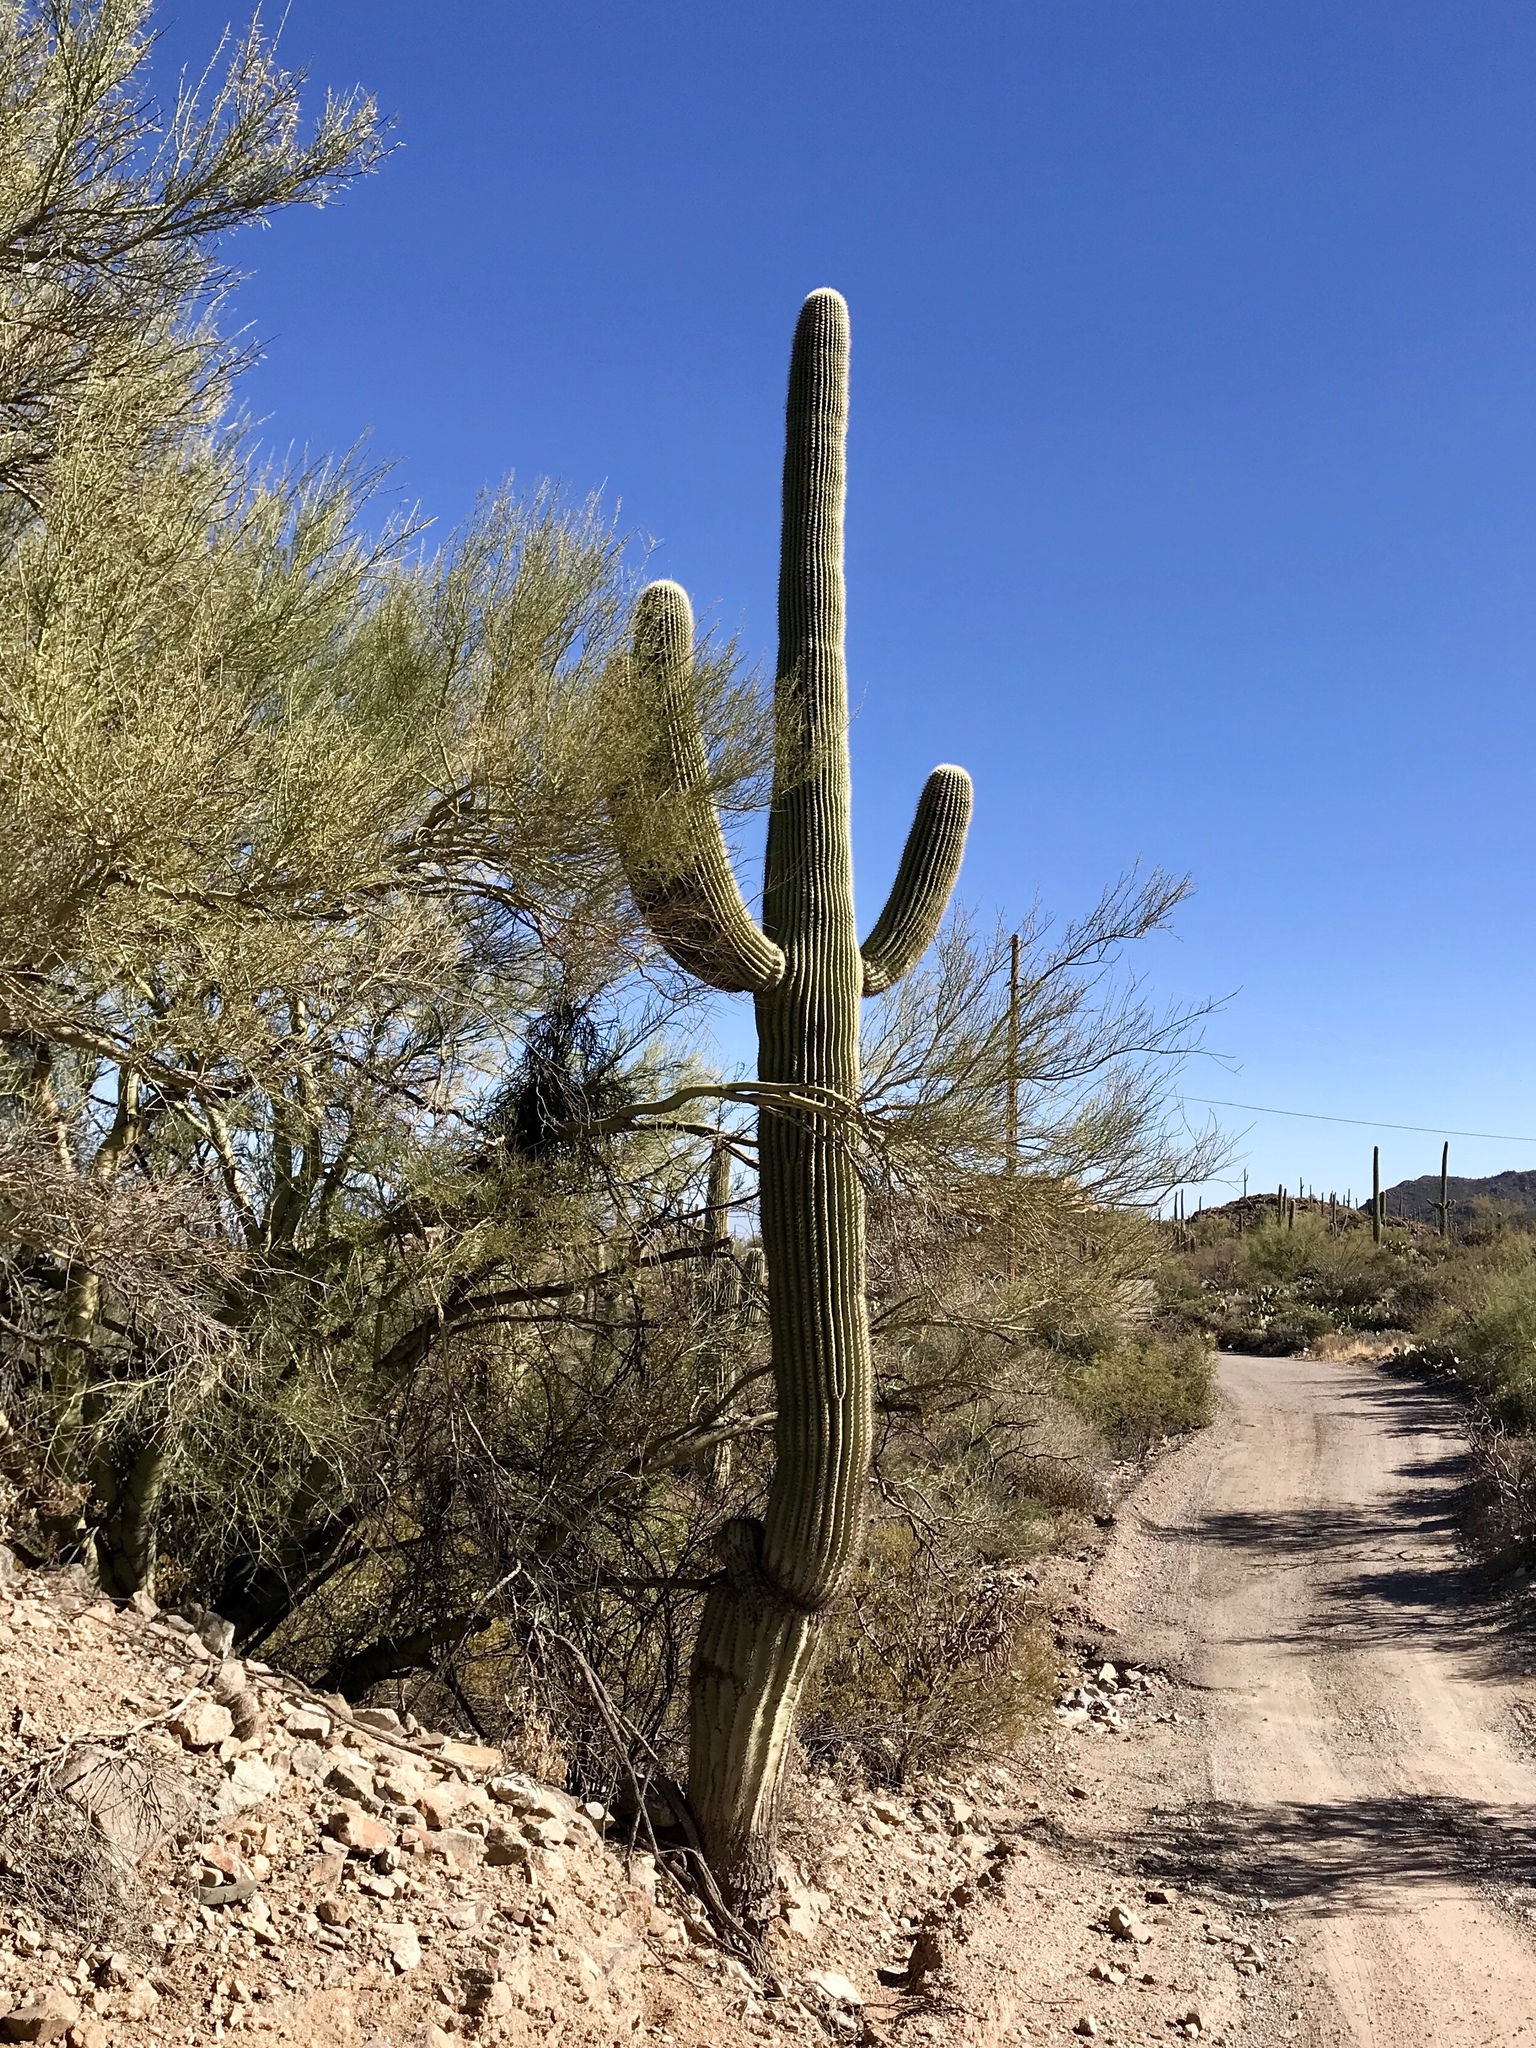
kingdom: Plantae
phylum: Tracheophyta
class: Magnoliopsida
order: Caryophyllales
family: Cactaceae
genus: Carnegiea
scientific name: Carnegiea gigantea
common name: Saguaro
